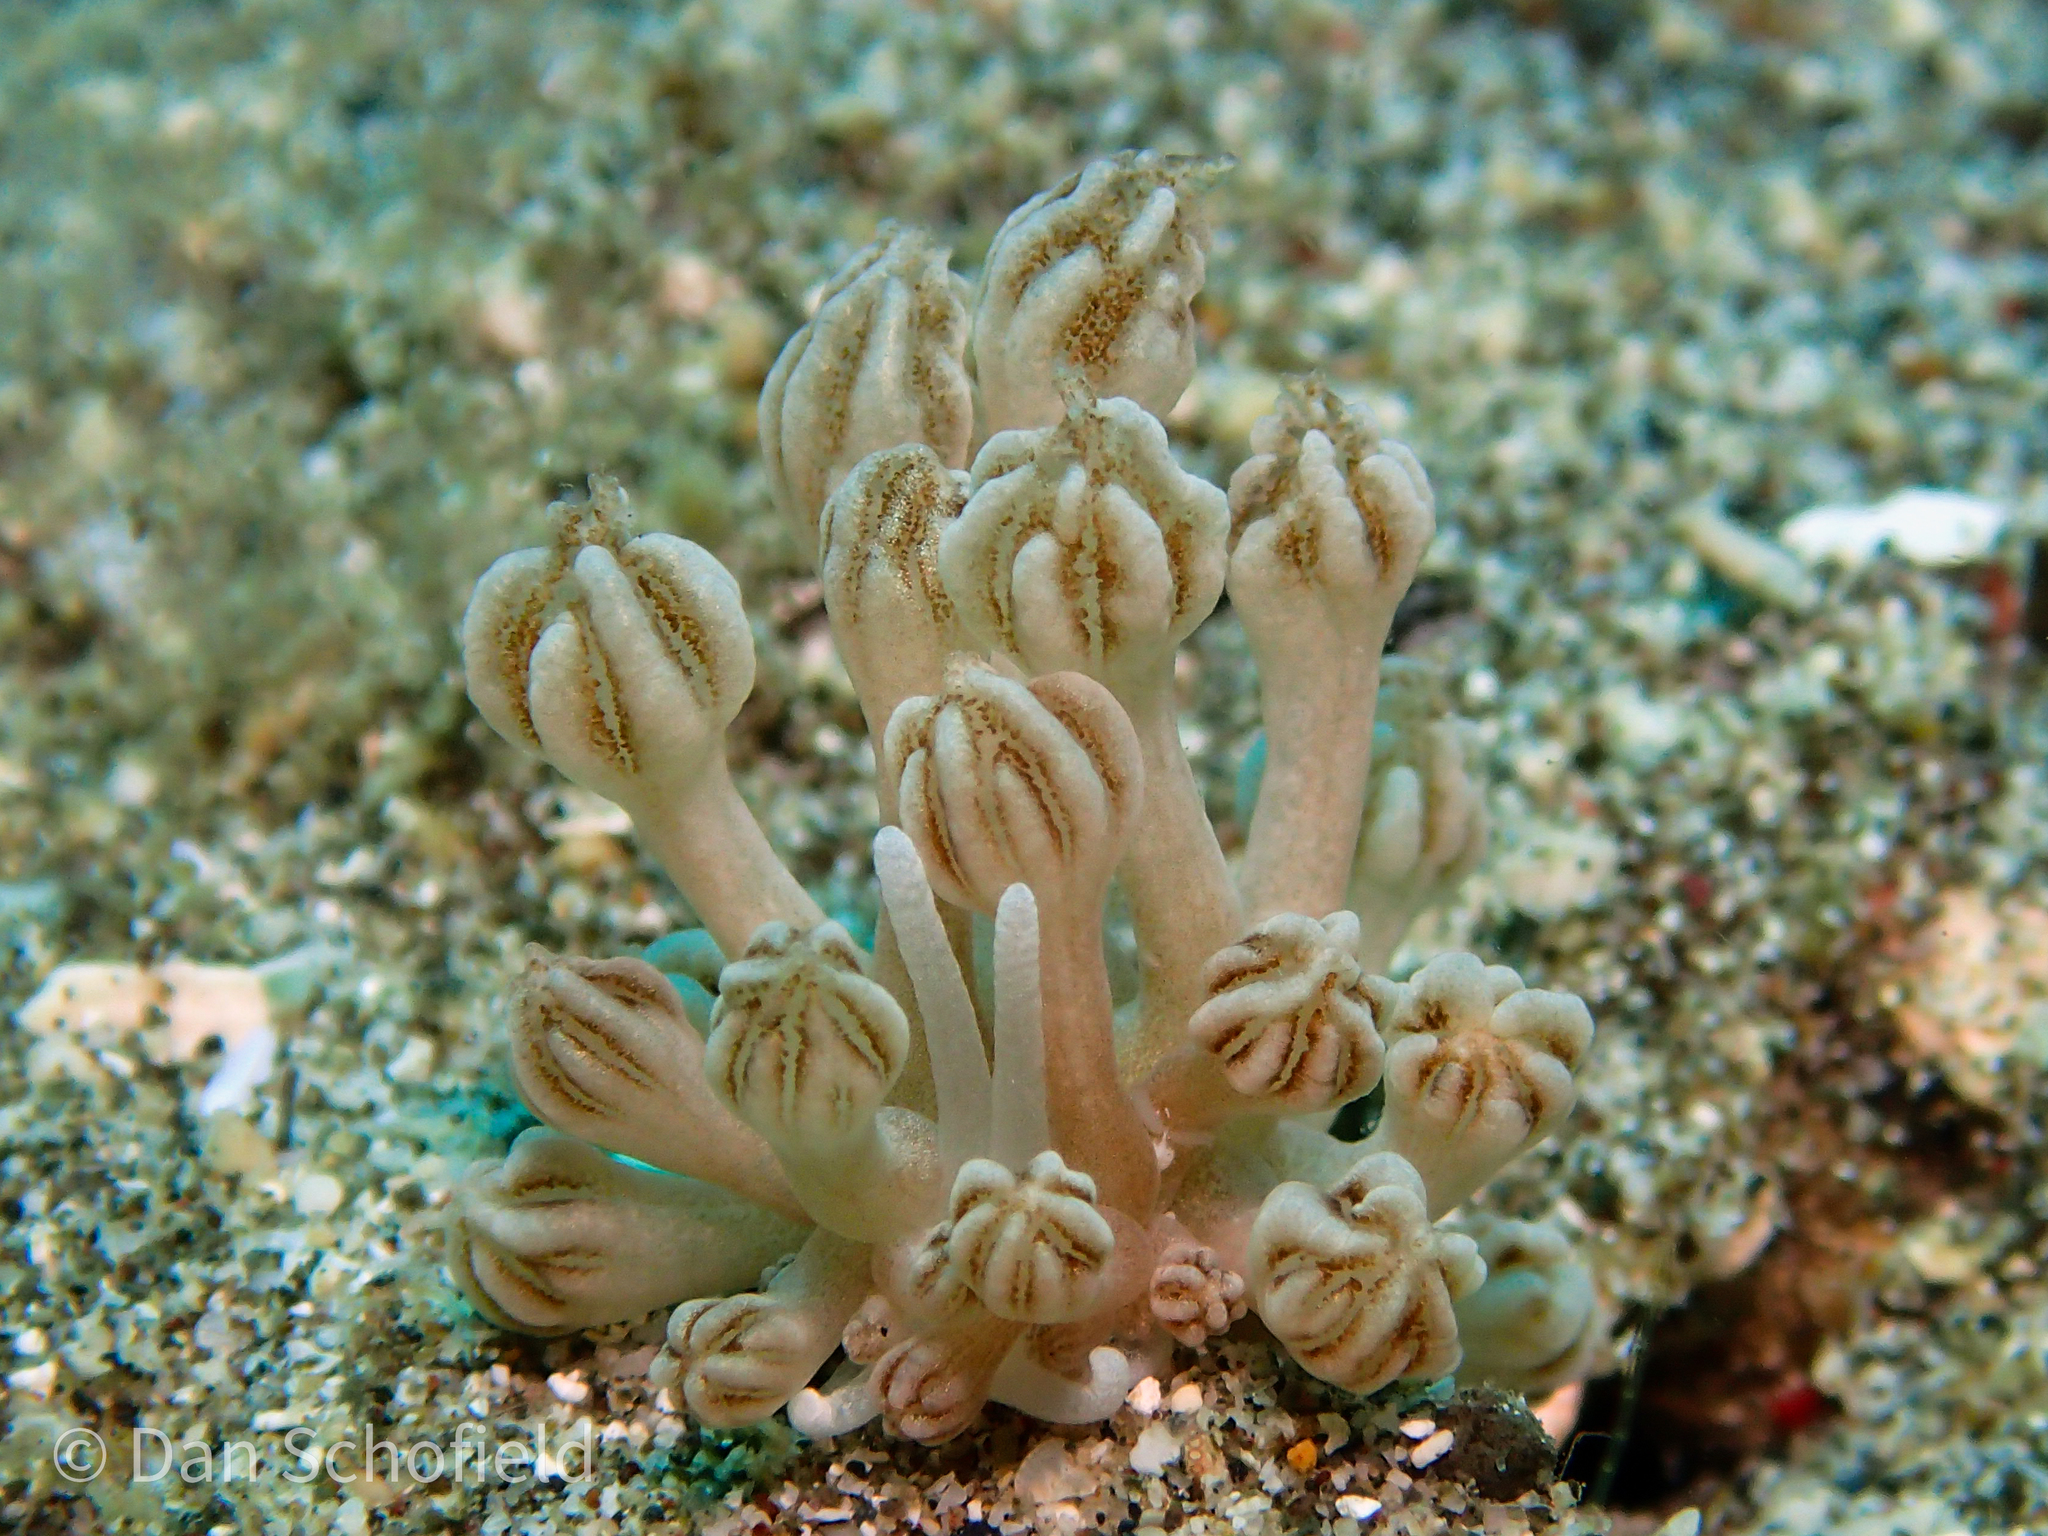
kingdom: Animalia
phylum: Mollusca
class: Gastropoda
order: Nudibranchia
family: Myrrhinidae
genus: Phyllodesmium
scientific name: Phyllodesmium rudmani
